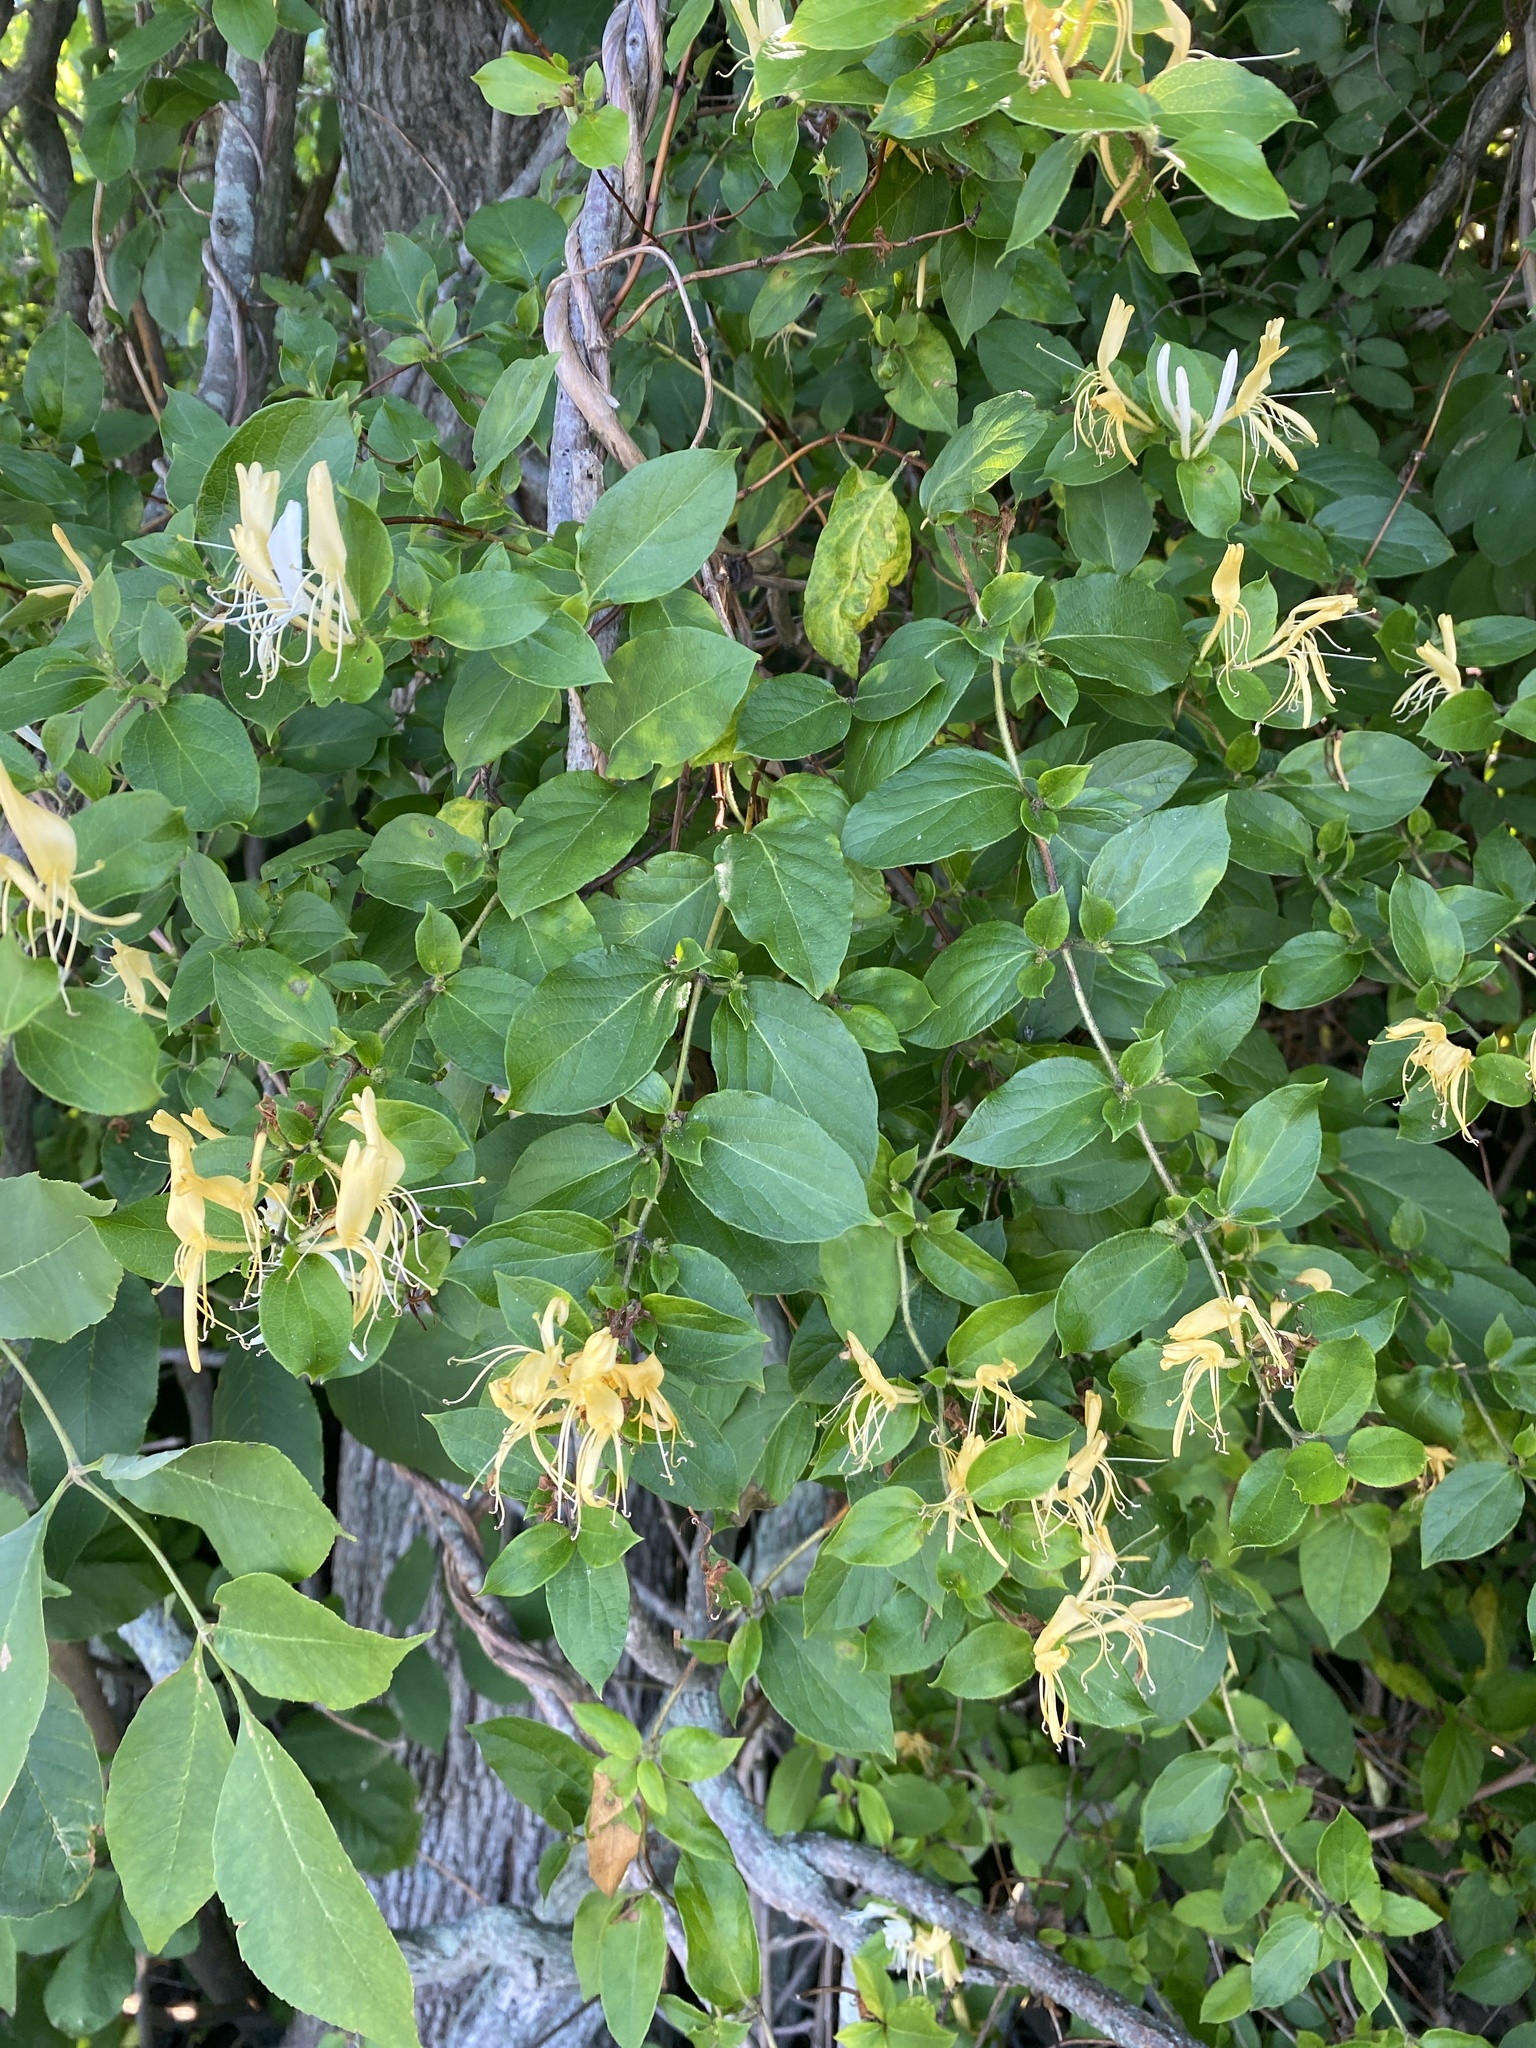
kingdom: Plantae
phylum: Tracheophyta
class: Magnoliopsida
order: Dipsacales
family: Caprifoliaceae
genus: Lonicera
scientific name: Lonicera japonica
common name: Japanese honeysuckle
